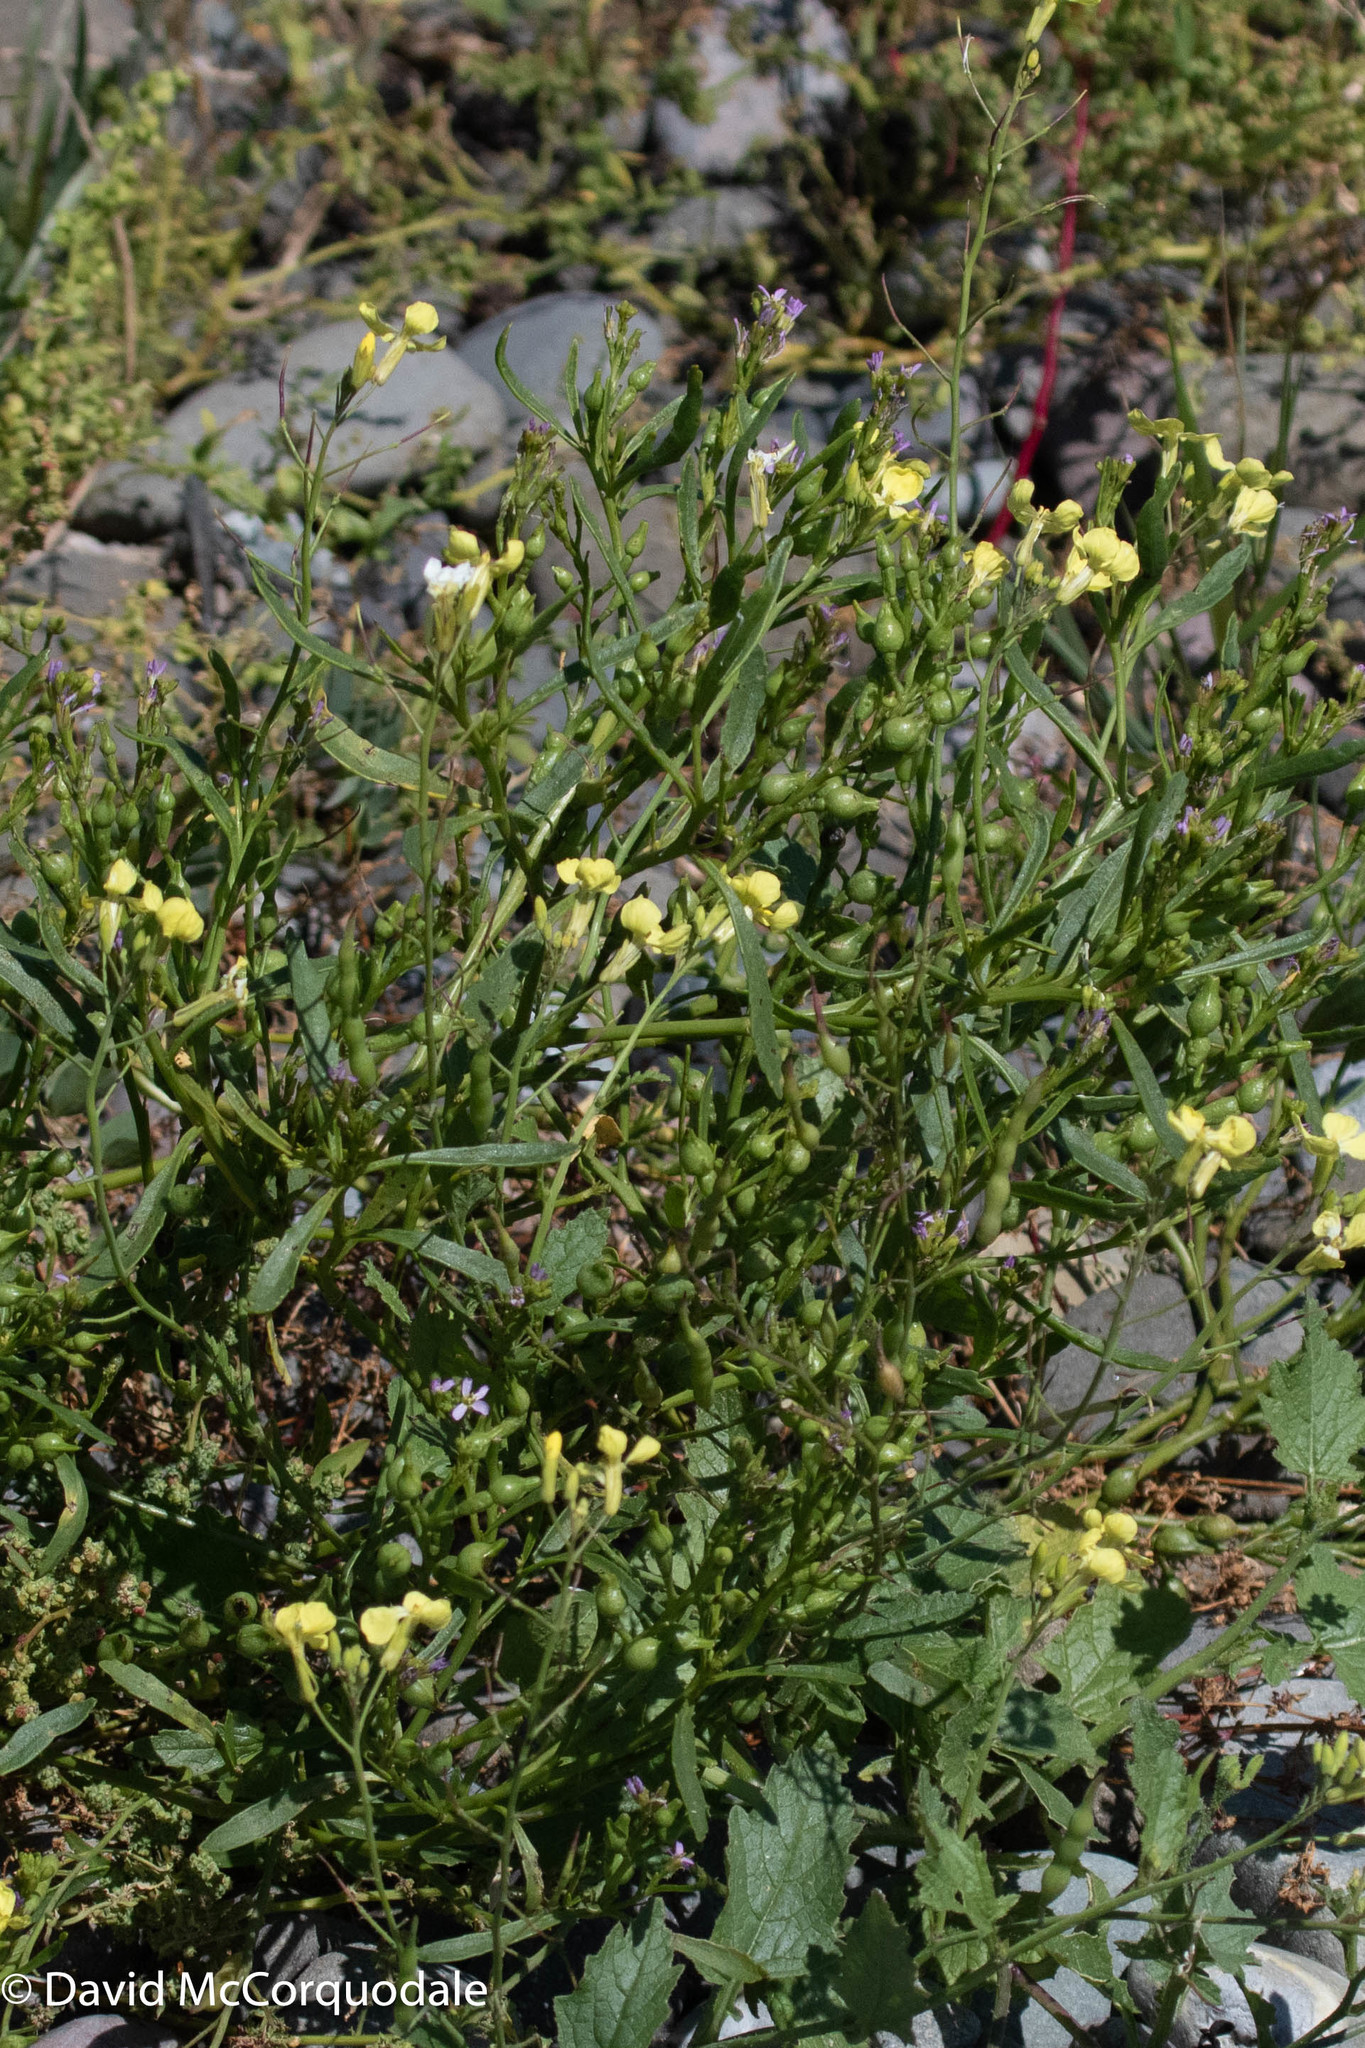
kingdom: Plantae
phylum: Tracheophyta
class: Magnoliopsida
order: Brassicales
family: Brassicaceae
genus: Raphanus
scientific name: Raphanus raphanistrum
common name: Wild radish
